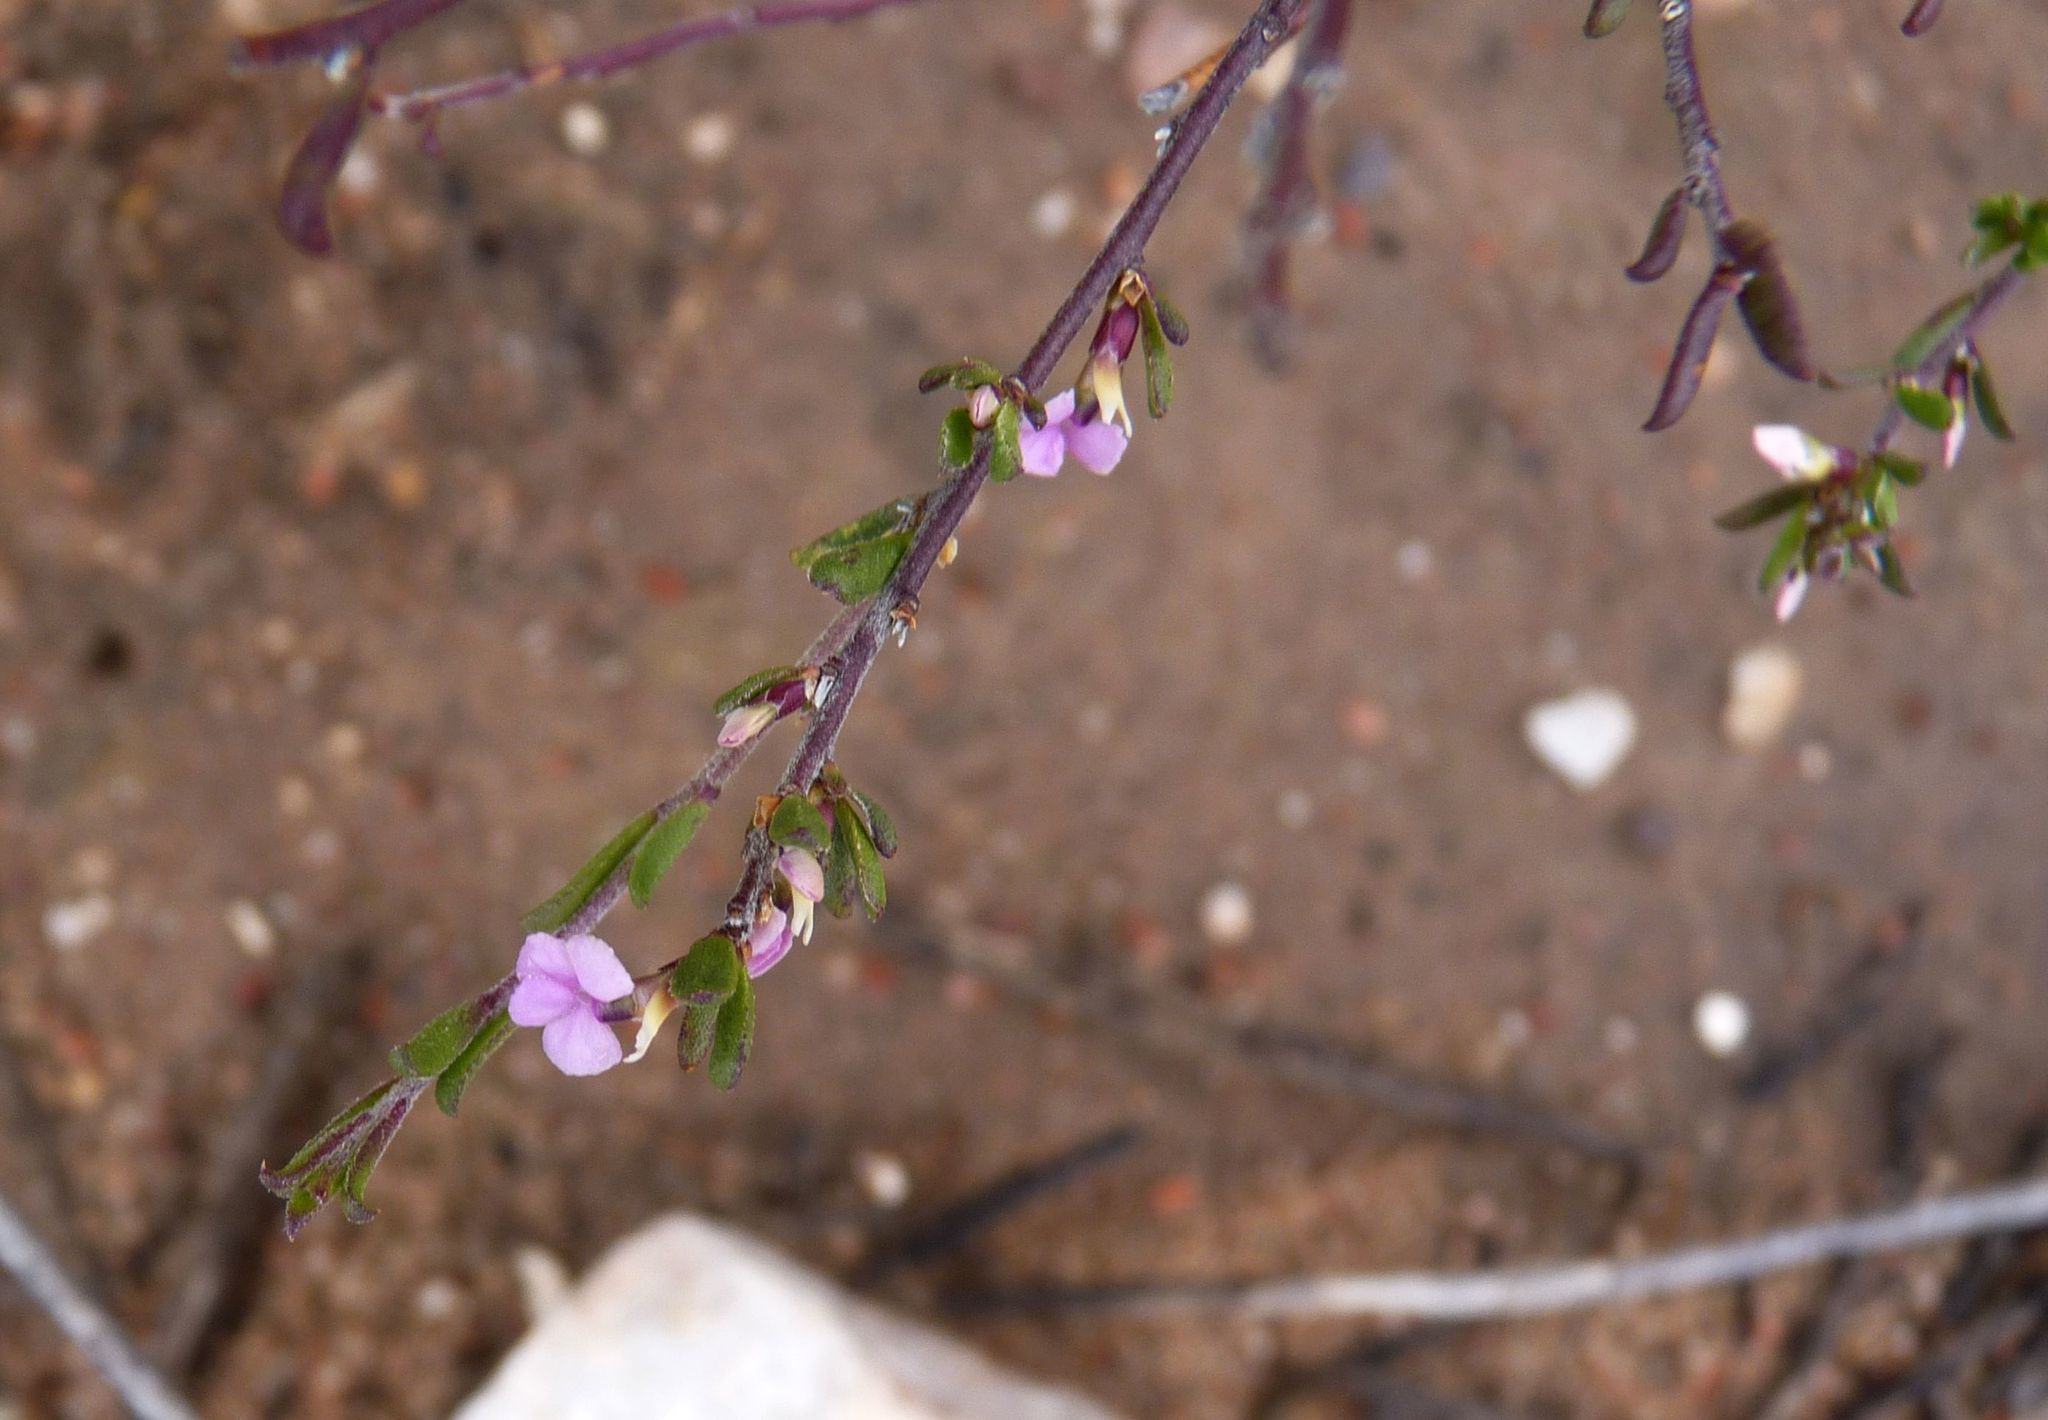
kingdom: Plantae
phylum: Tracheophyta
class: Magnoliopsida
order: Fabales
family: Polygalaceae
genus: Muraltia
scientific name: Muraltia dispersa
